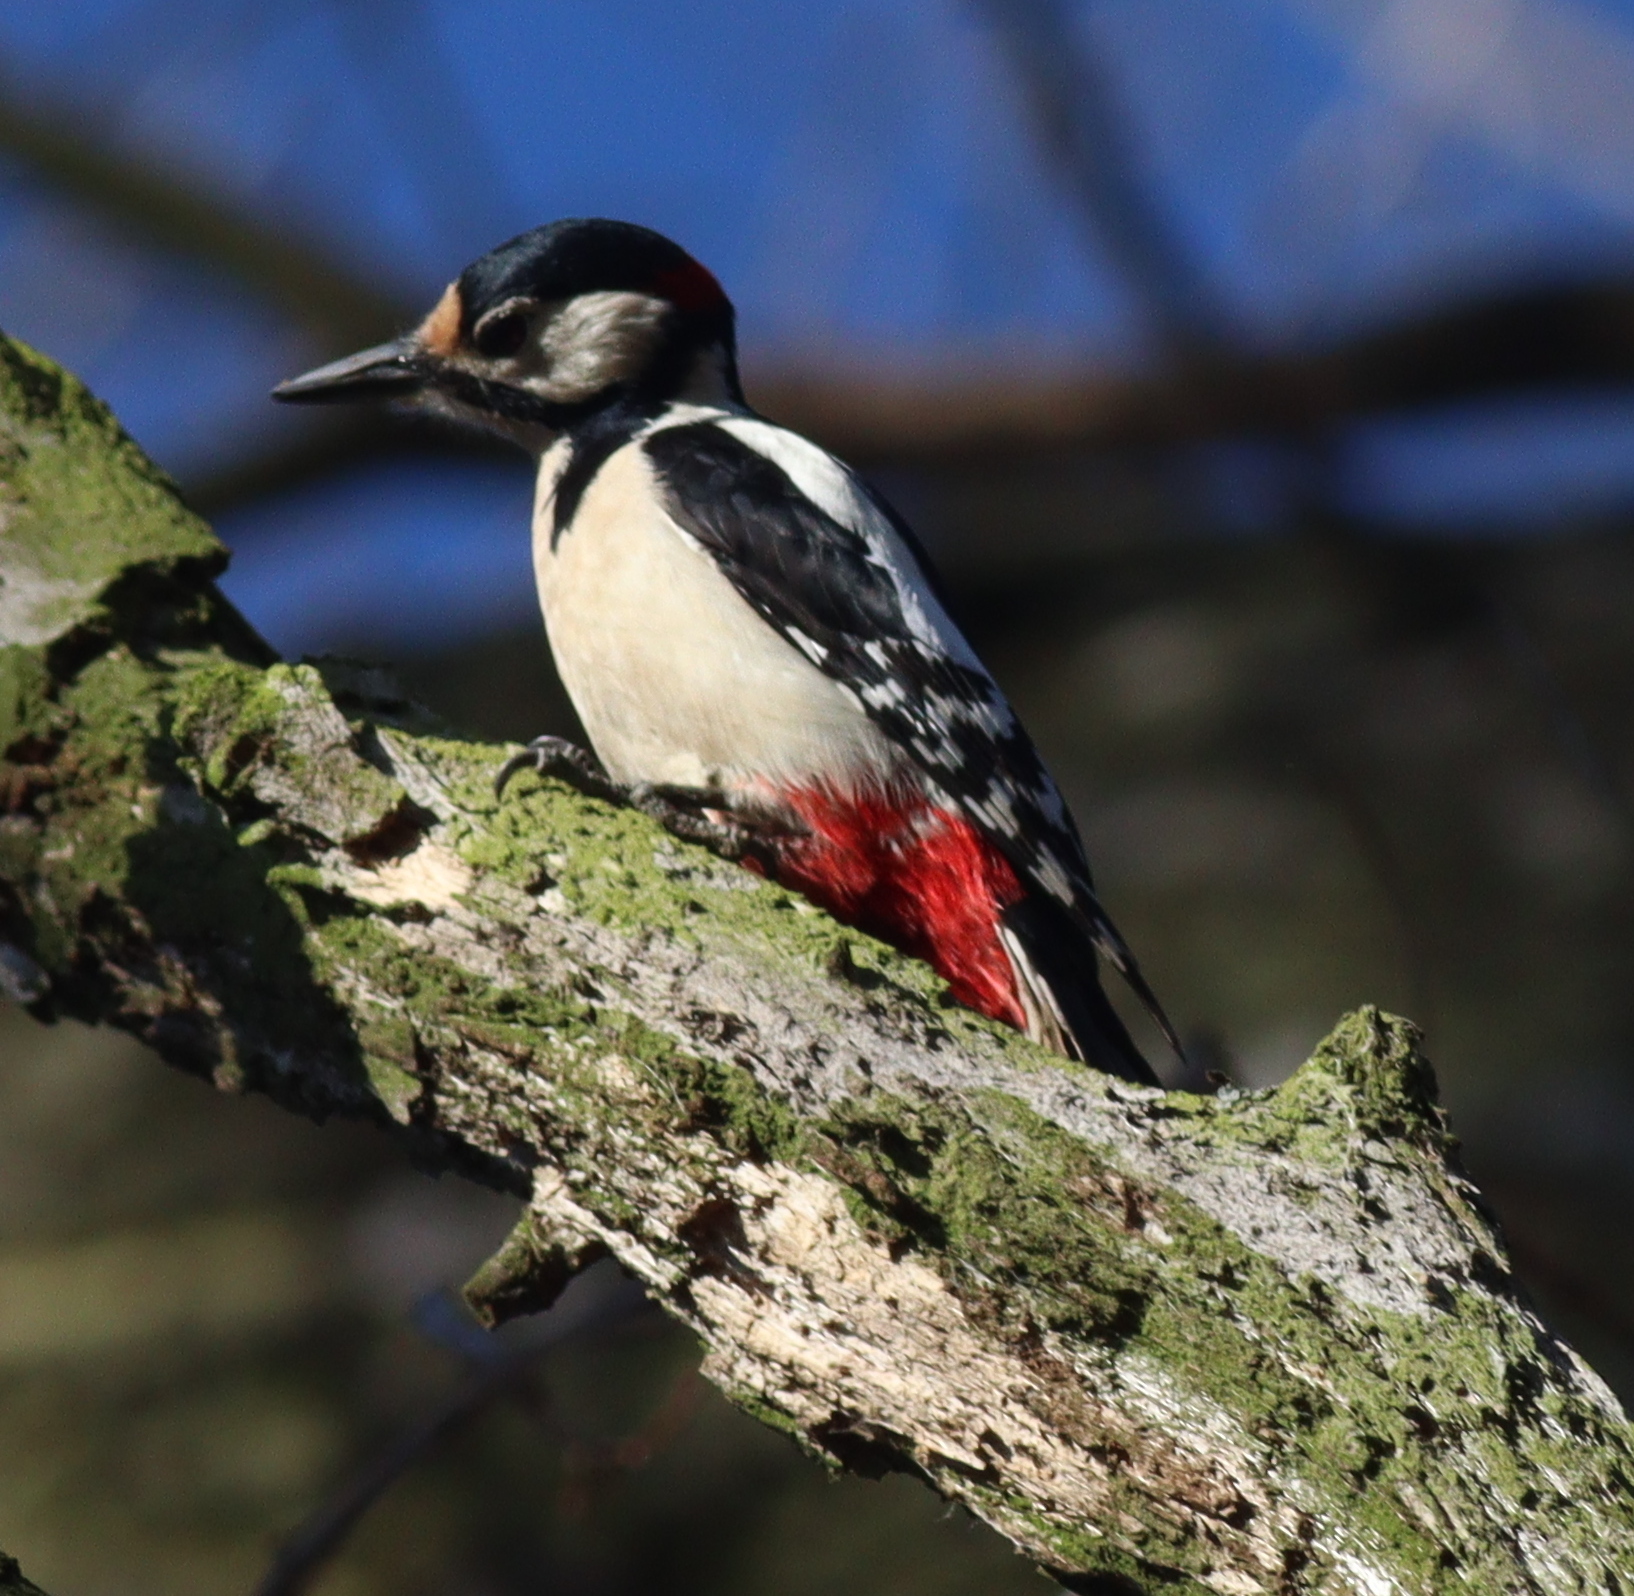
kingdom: Animalia
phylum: Chordata
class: Aves
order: Piciformes
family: Picidae
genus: Dendrocopos
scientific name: Dendrocopos major
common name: Great spotted woodpecker
